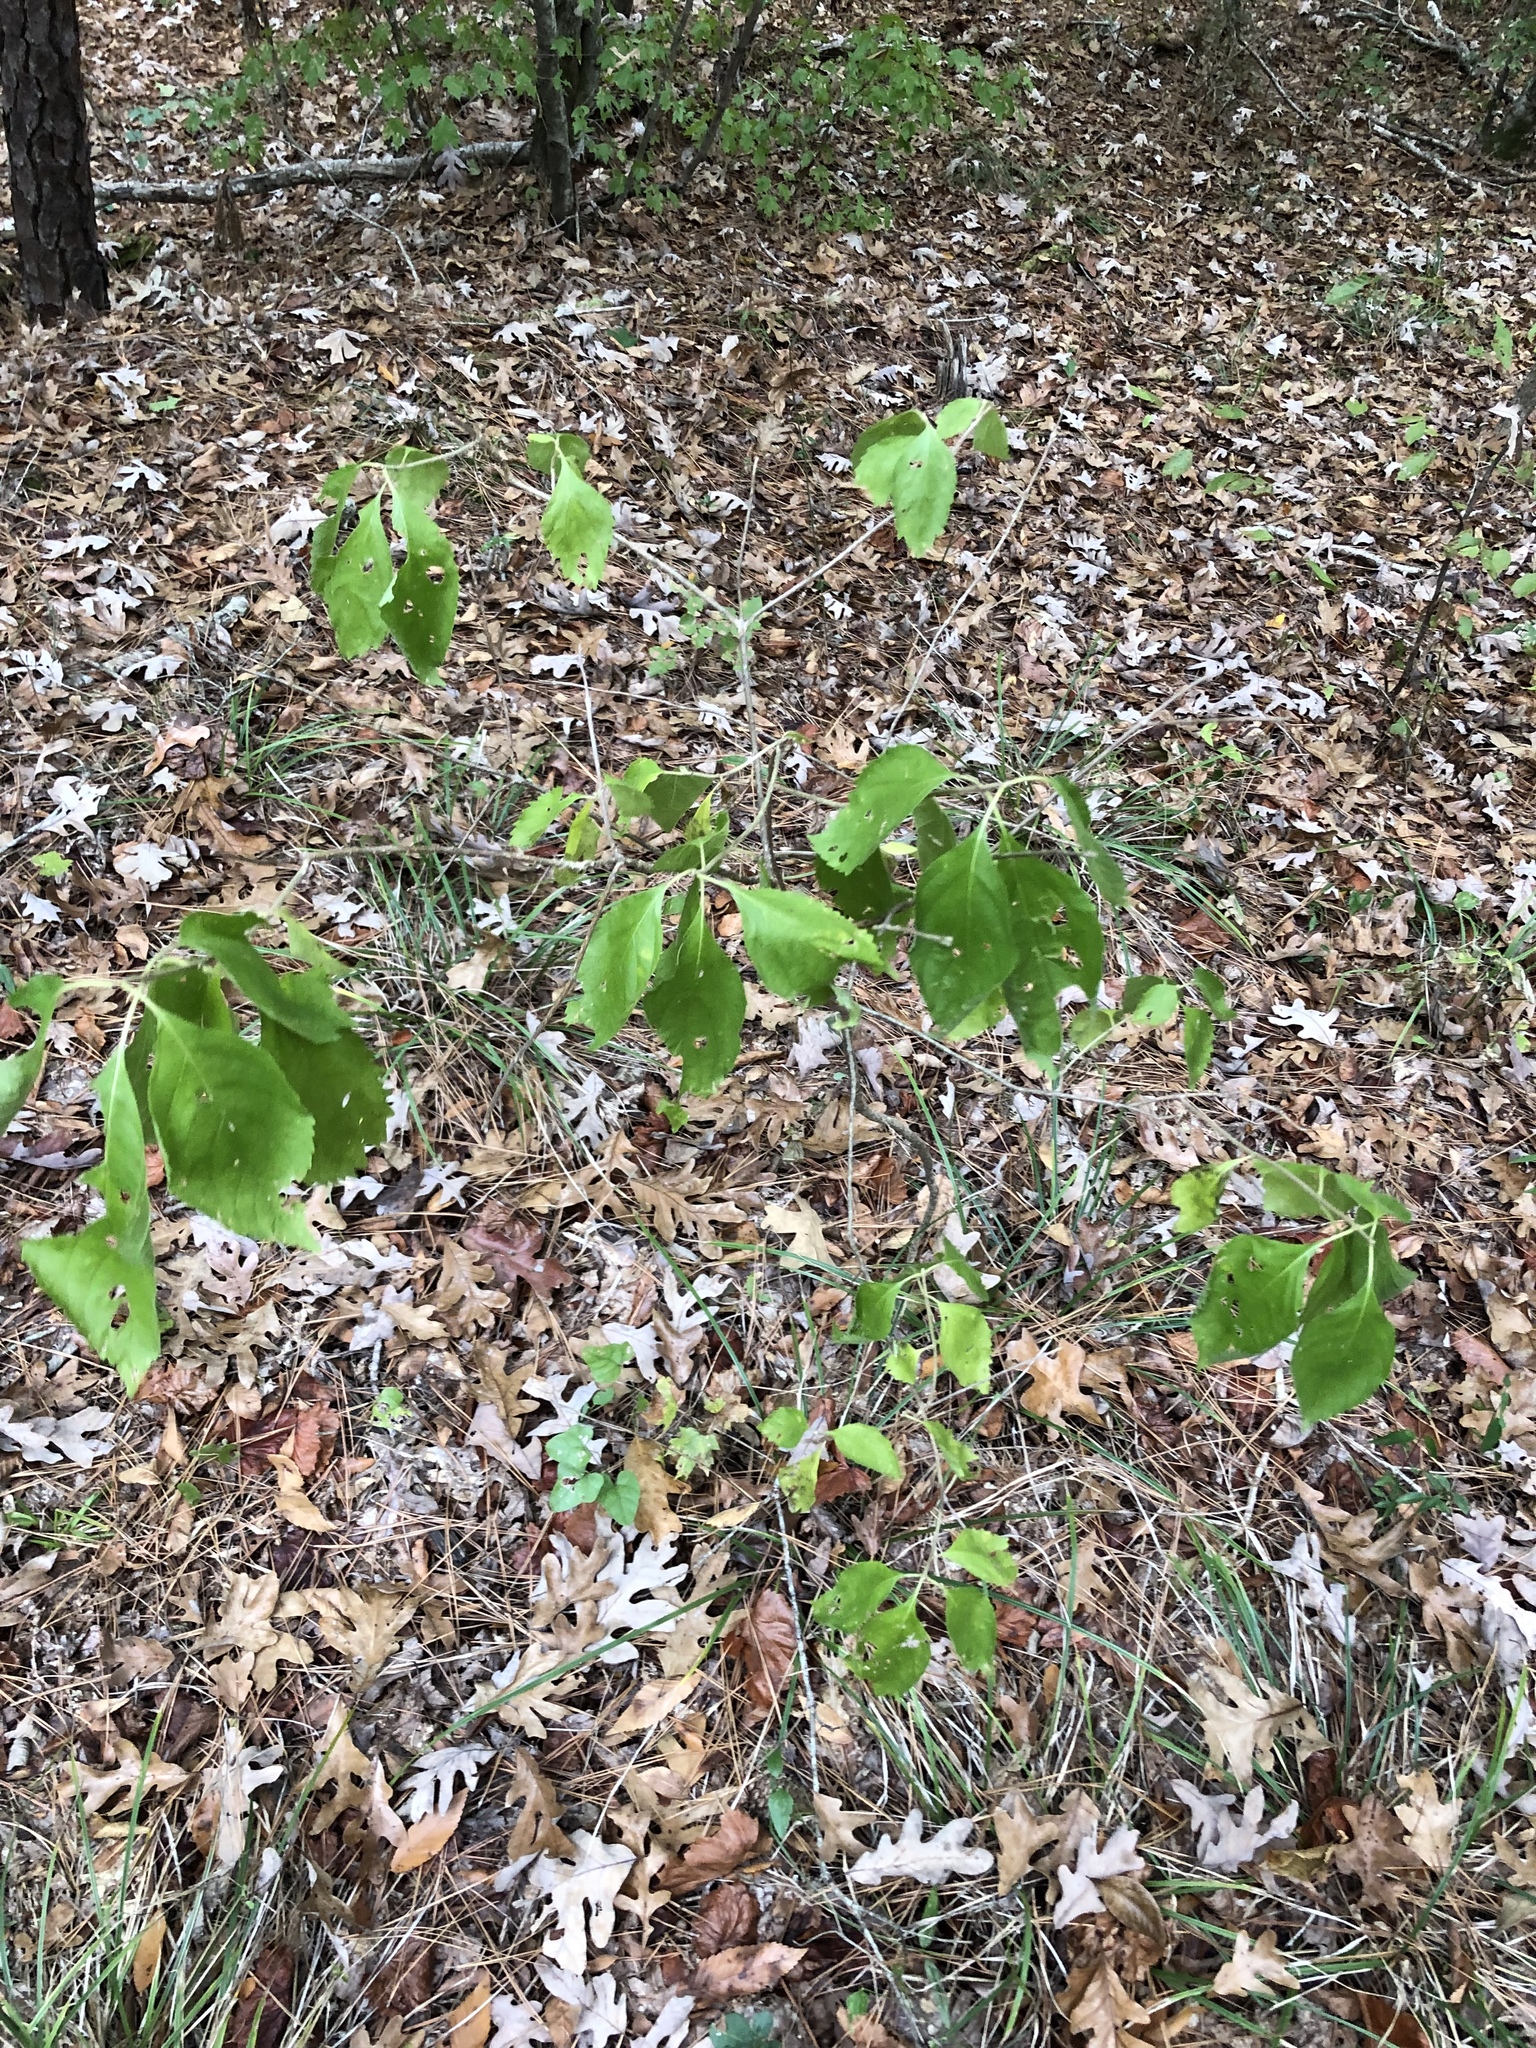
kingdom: Plantae
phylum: Tracheophyta
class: Magnoliopsida
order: Lamiales
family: Lamiaceae
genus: Callicarpa
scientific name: Callicarpa americana
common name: American beautyberry
